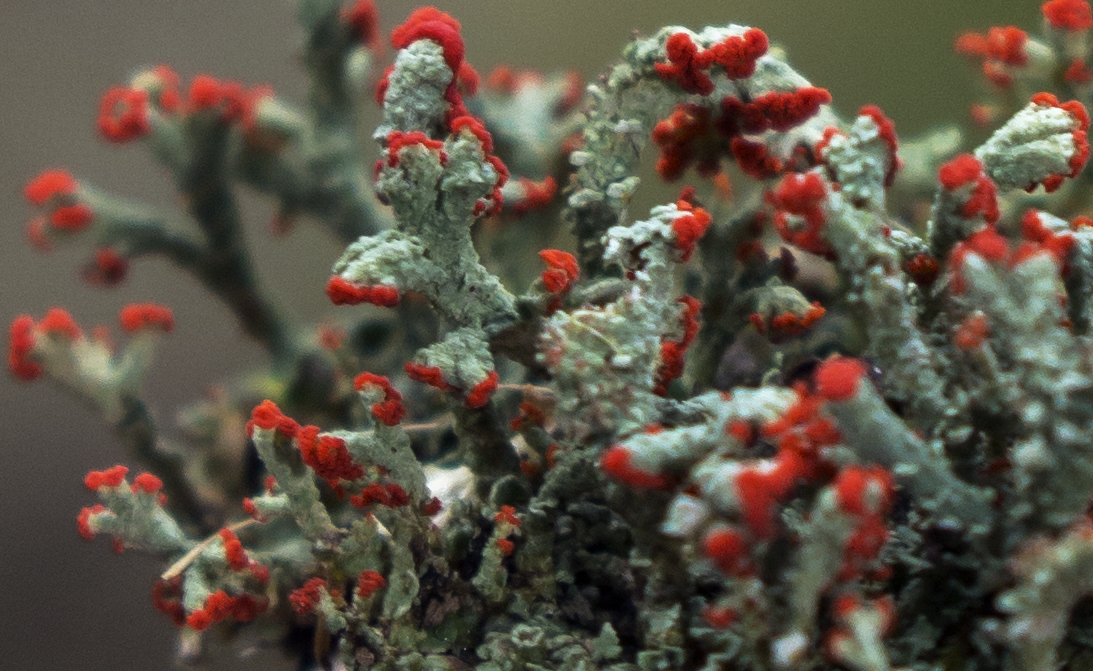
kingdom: Fungi
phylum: Ascomycota
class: Lecanoromycetes
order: Lecanorales
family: Cladoniaceae
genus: Cladonia
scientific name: Cladonia cristatella
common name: British soldier lichen
